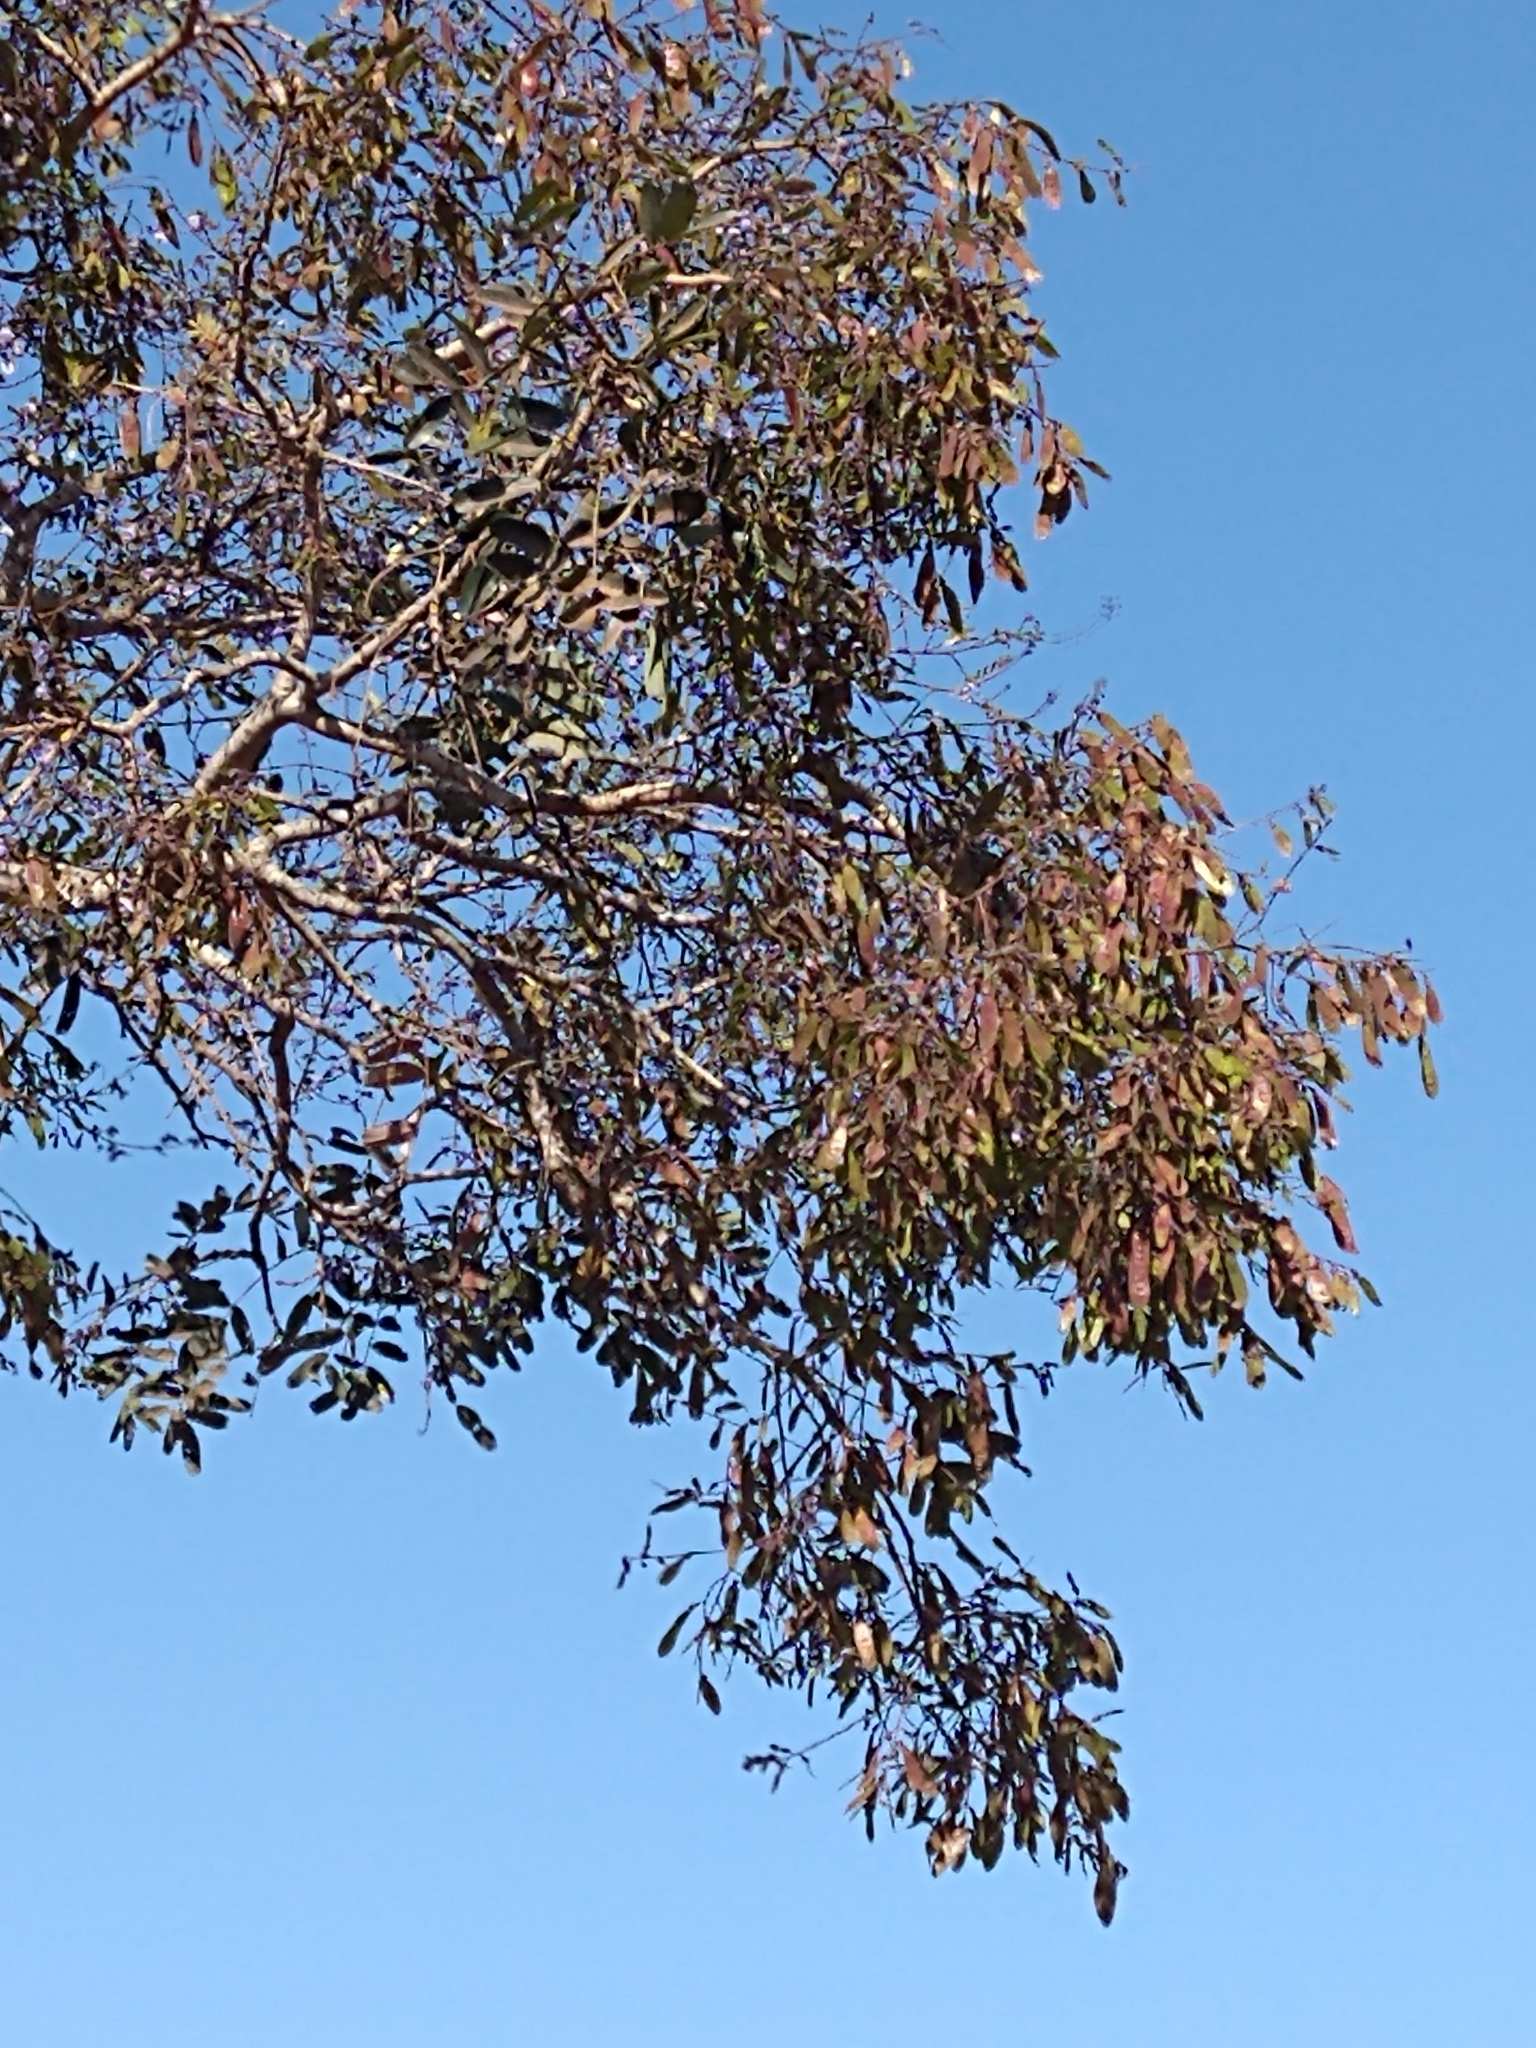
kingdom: Plantae
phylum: Tracheophyta
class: Magnoliopsida
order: Fabales
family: Fabaceae
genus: Bowdichia
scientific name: Bowdichia virgilioides
